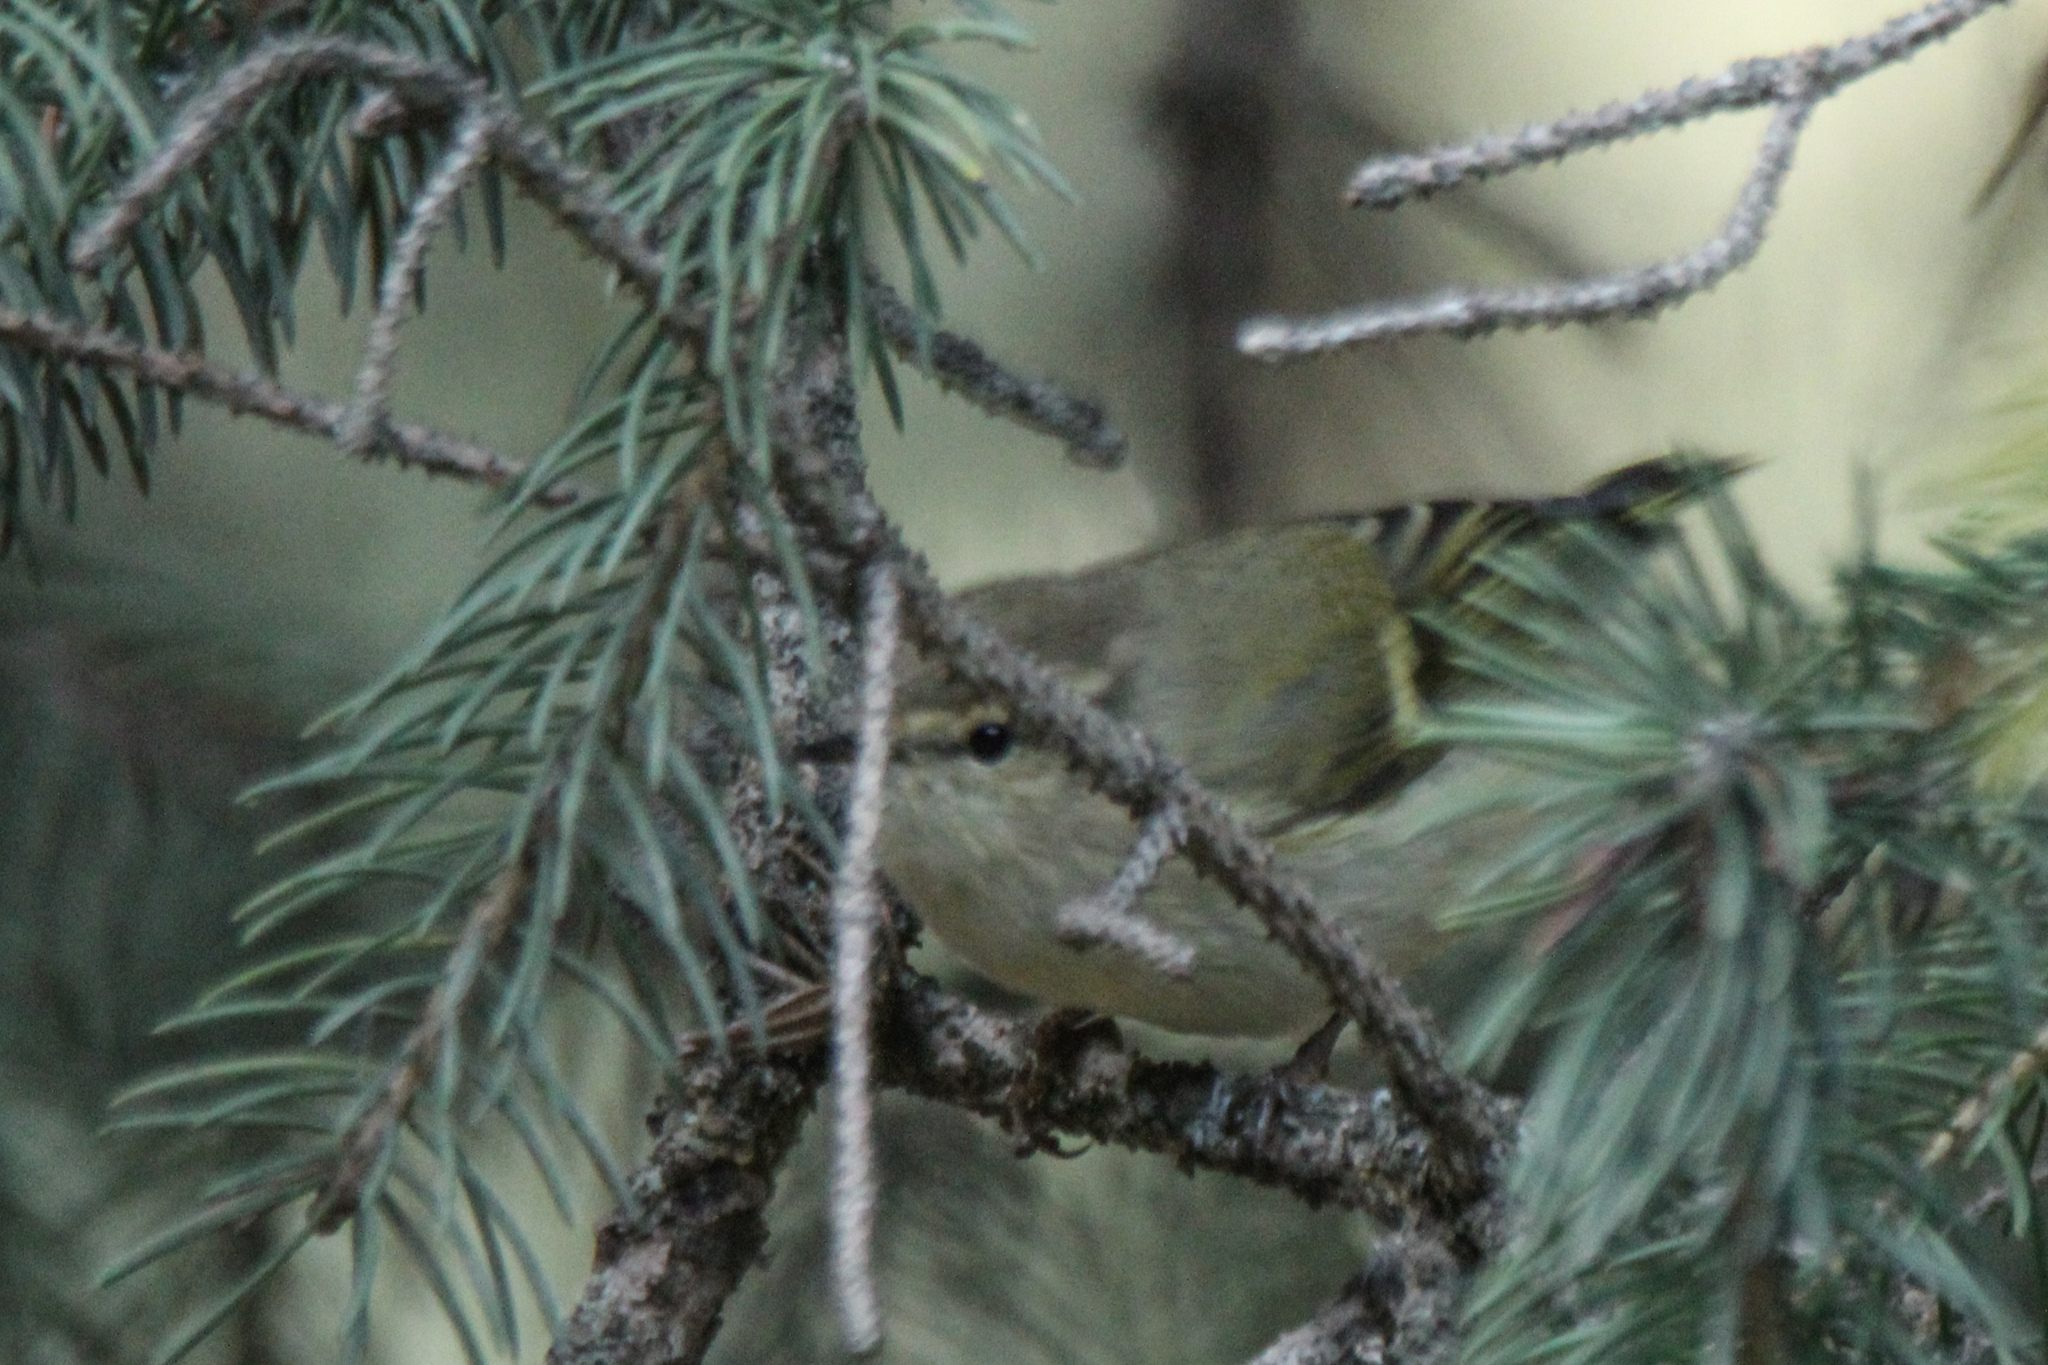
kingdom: Animalia
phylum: Chordata
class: Aves
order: Passeriformes
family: Phylloscopidae
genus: Phylloscopus
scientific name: Phylloscopus humei
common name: Hume's leaf warbler
